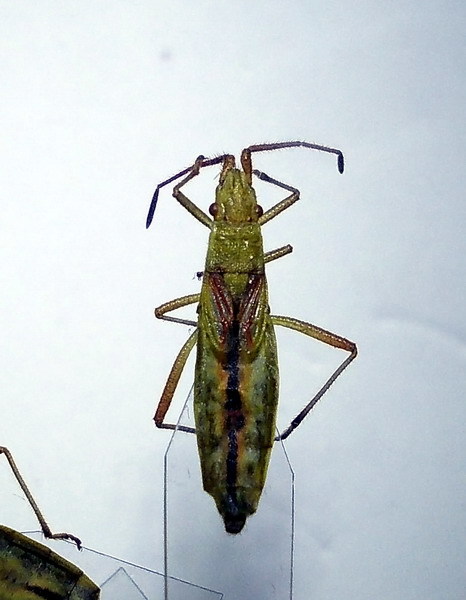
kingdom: Animalia
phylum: Arthropoda
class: Insecta
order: Hemiptera
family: Rhopalidae
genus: Myrmus
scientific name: Myrmus miriformis
